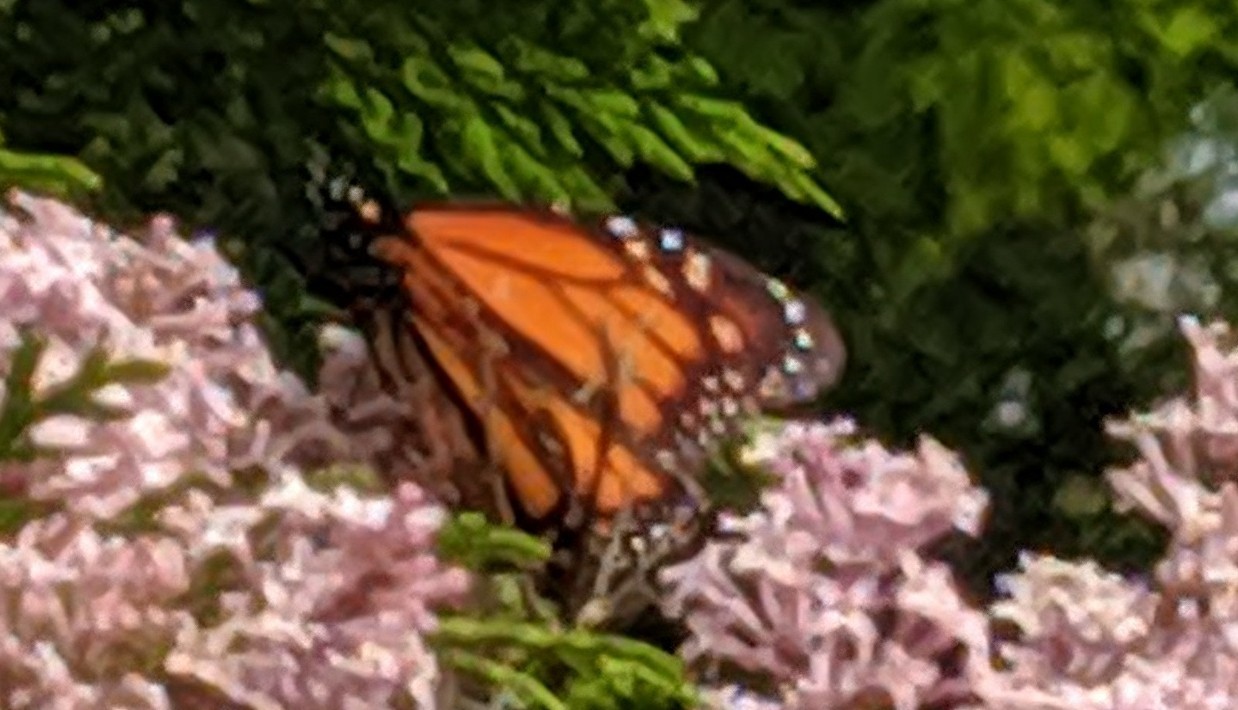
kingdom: Animalia
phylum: Arthropoda
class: Insecta
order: Lepidoptera
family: Nymphalidae
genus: Danaus
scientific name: Danaus plexippus
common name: Monarch
